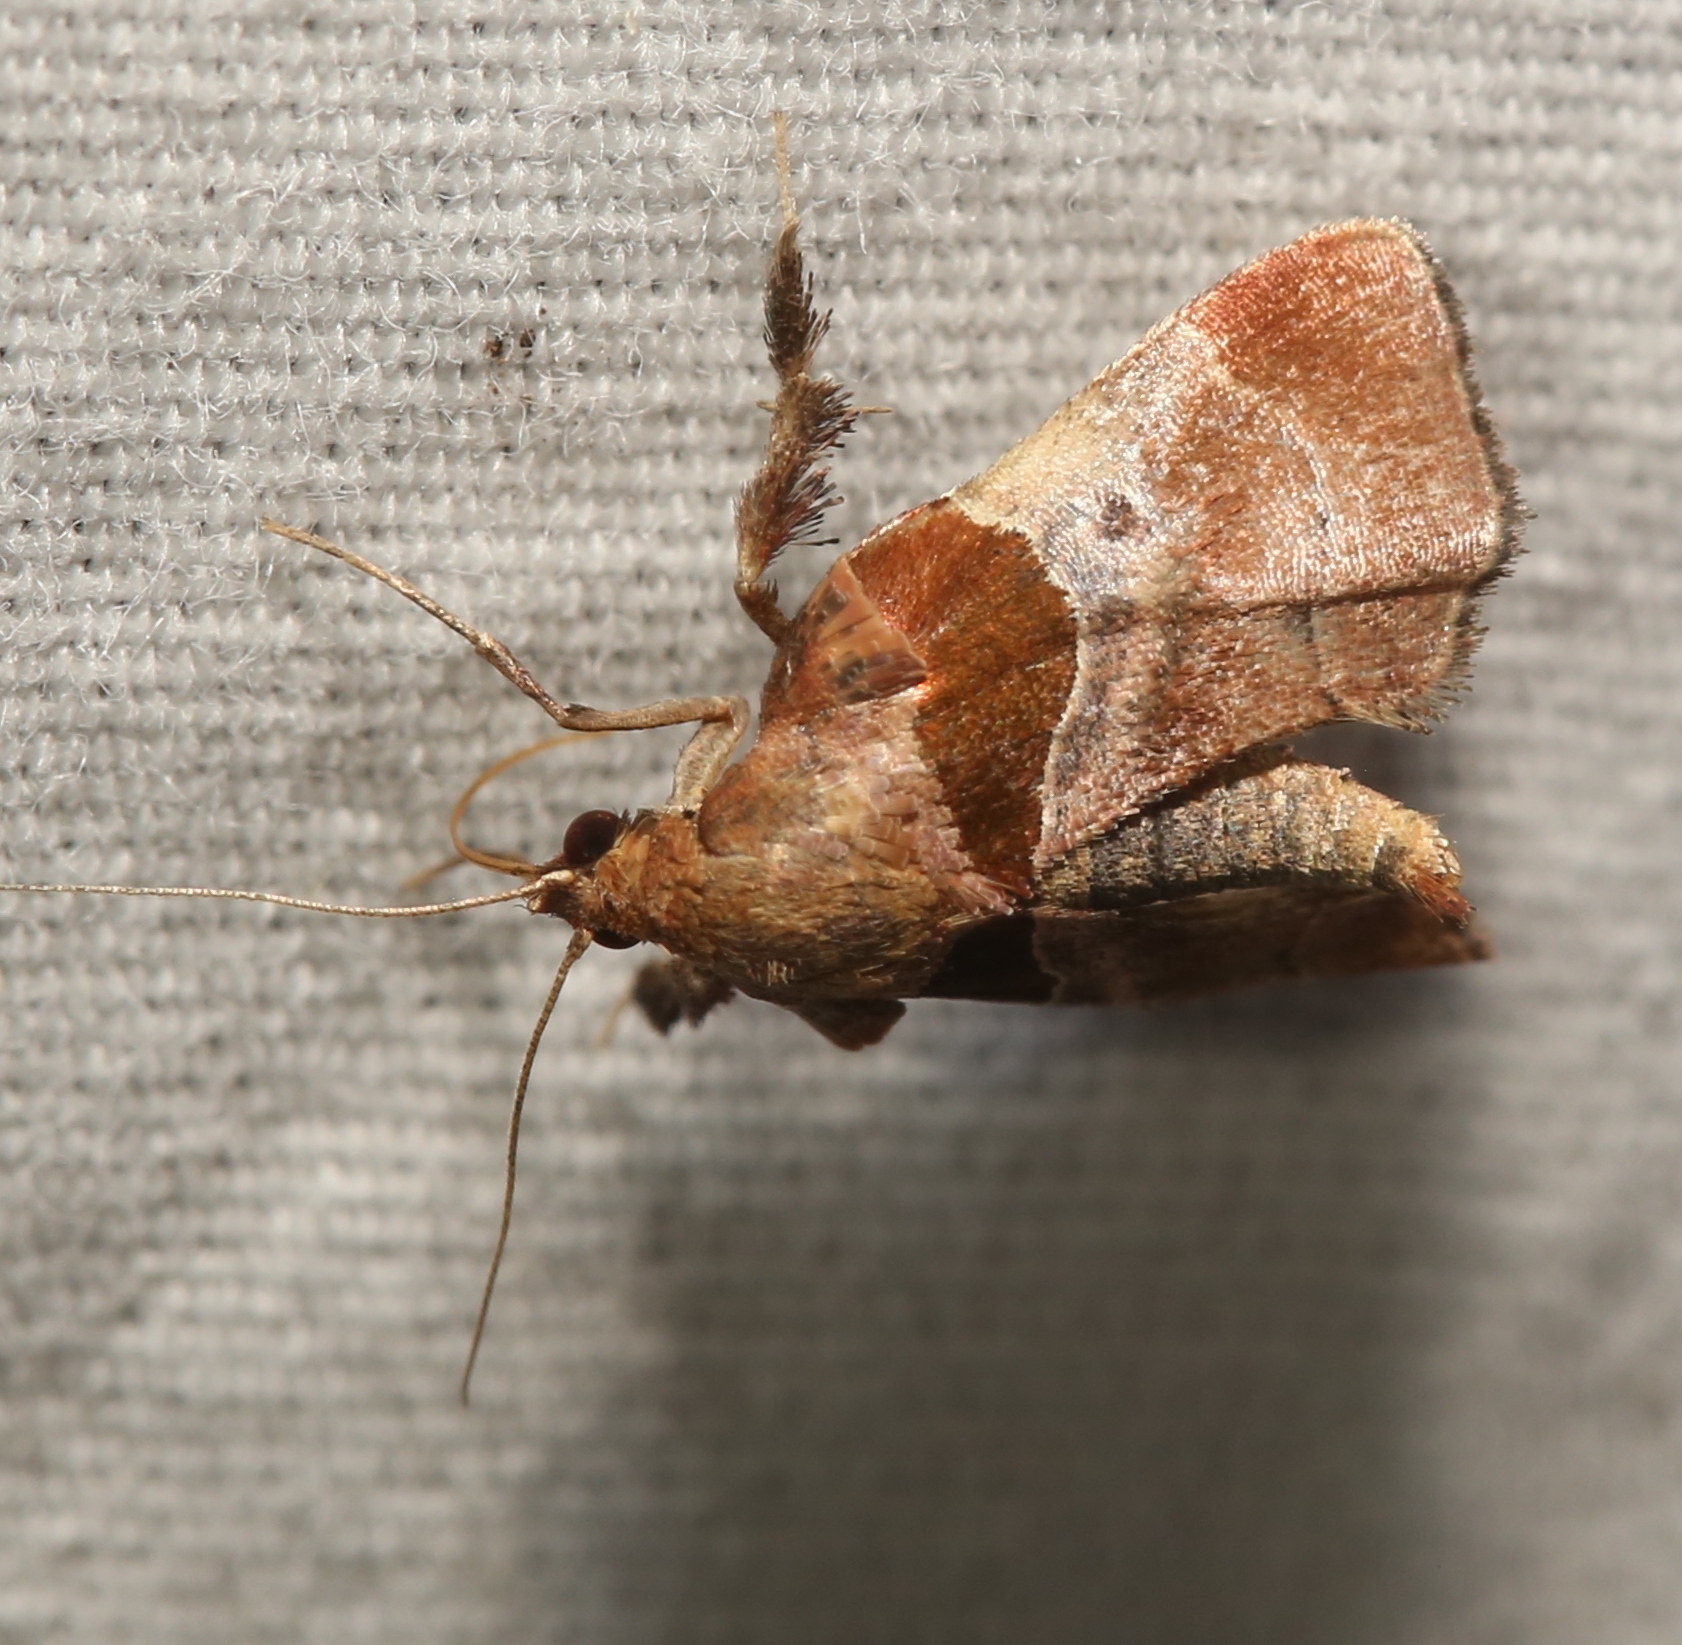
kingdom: Animalia
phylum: Arthropoda
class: Insecta
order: Lepidoptera
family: Pyralidae
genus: Tosale
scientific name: Tosale oviplagalis
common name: Dimorphic tosale moth
